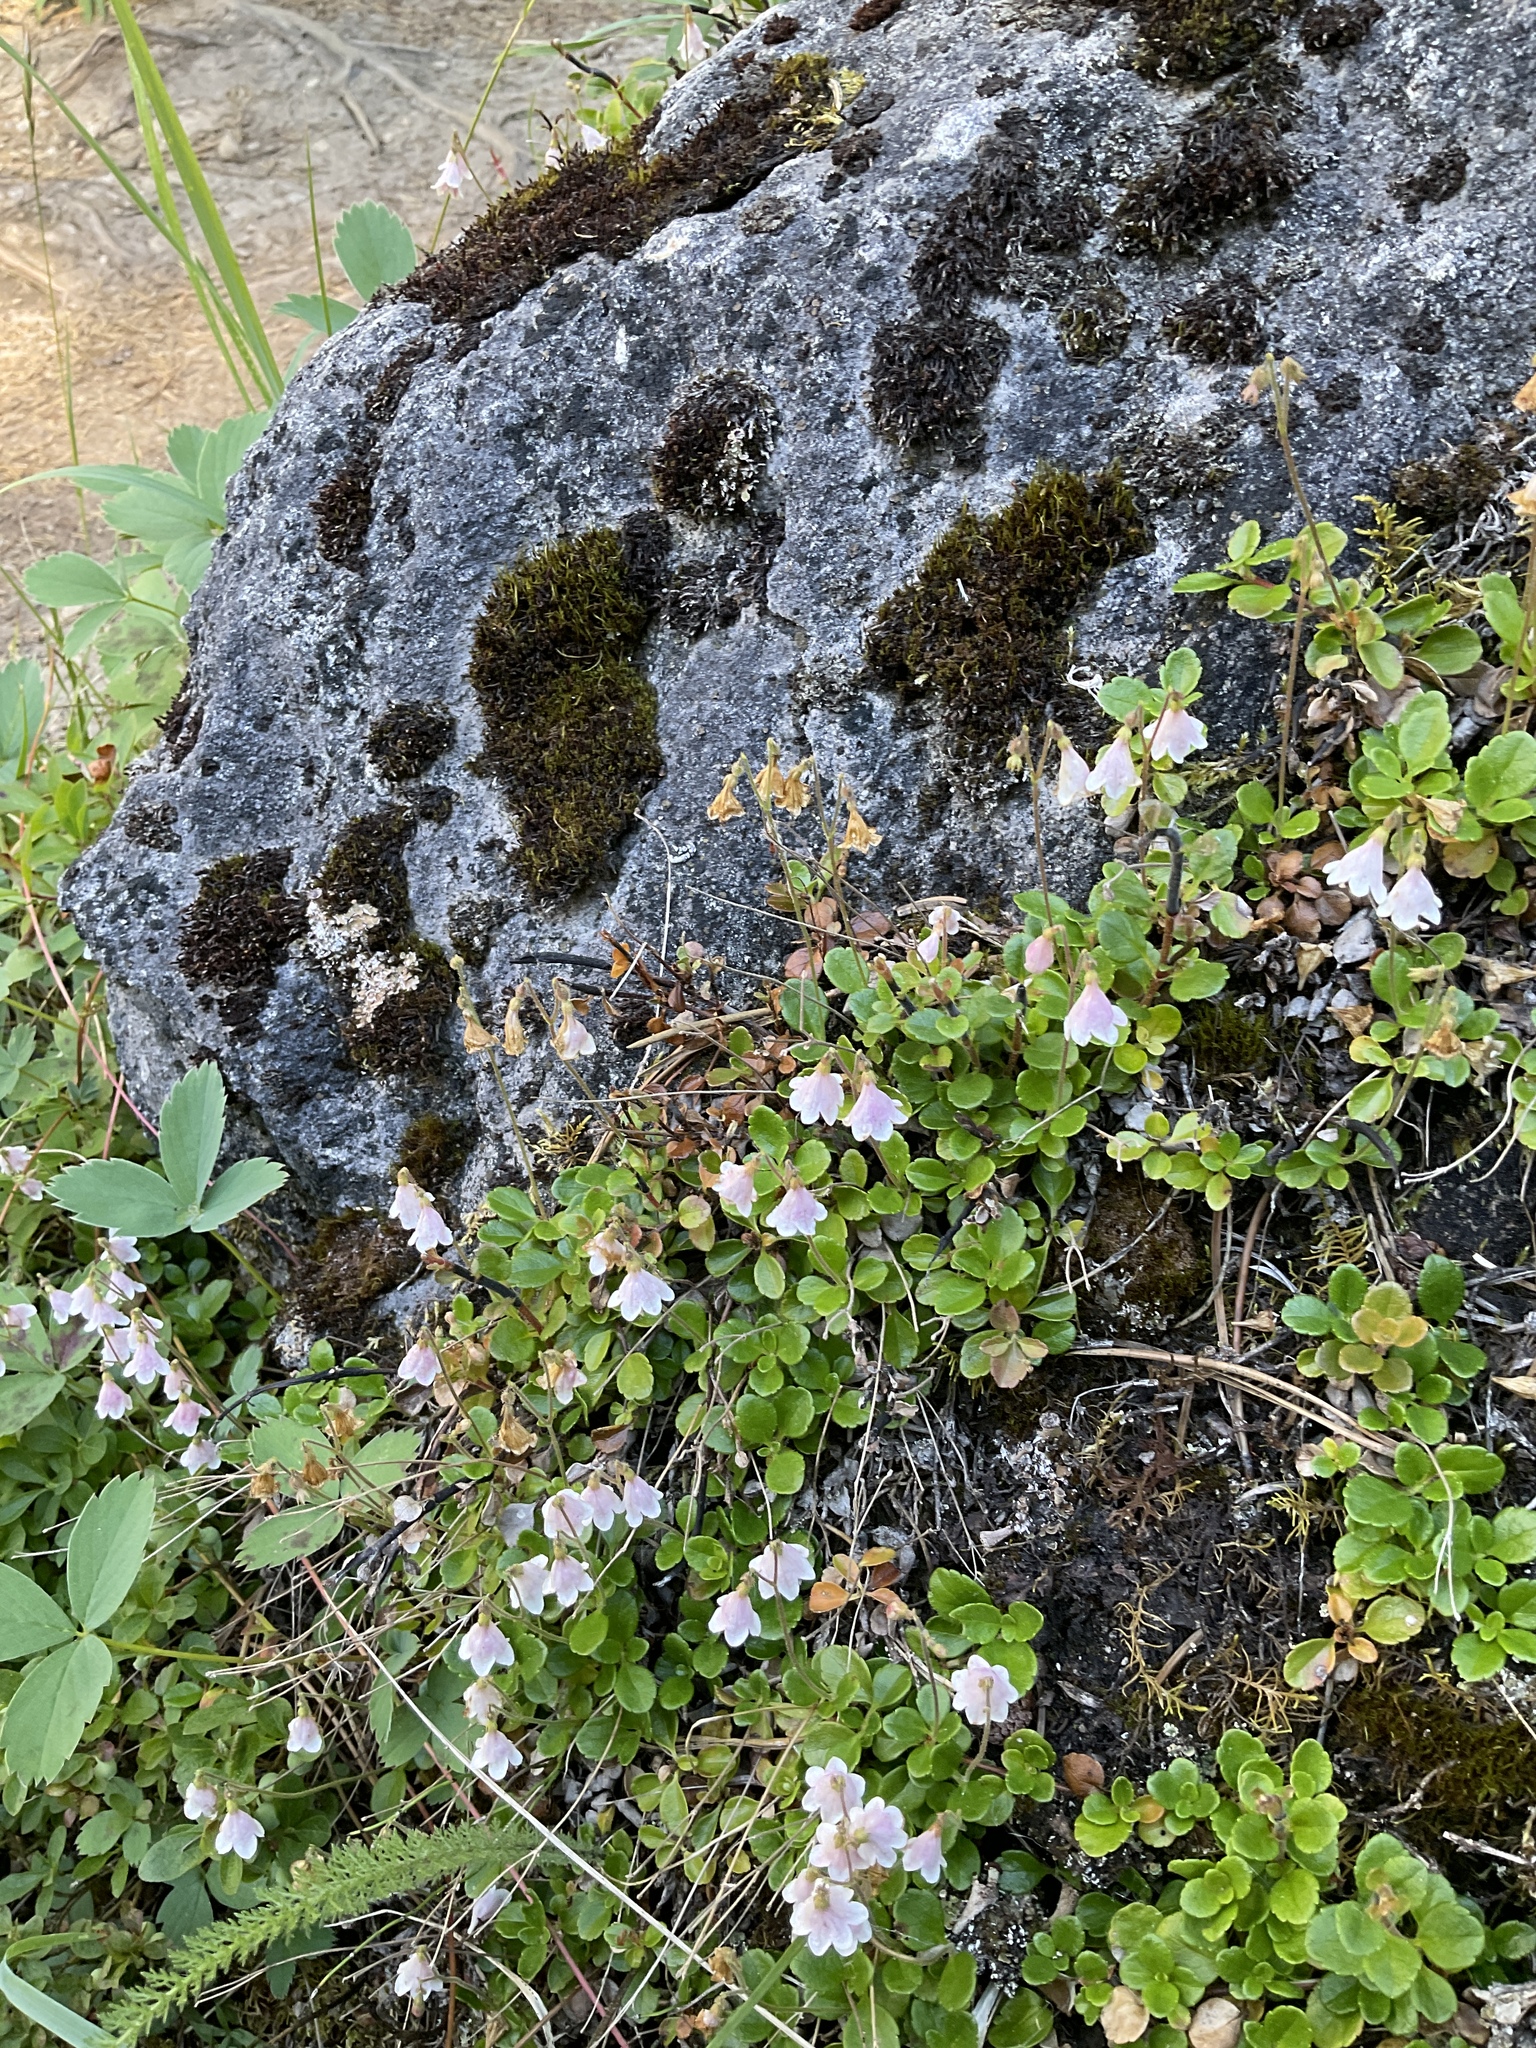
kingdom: Plantae
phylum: Tracheophyta
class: Magnoliopsida
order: Dipsacales
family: Caprifoliaceae
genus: Linnaea
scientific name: Linnaea borealis
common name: Twinflower
